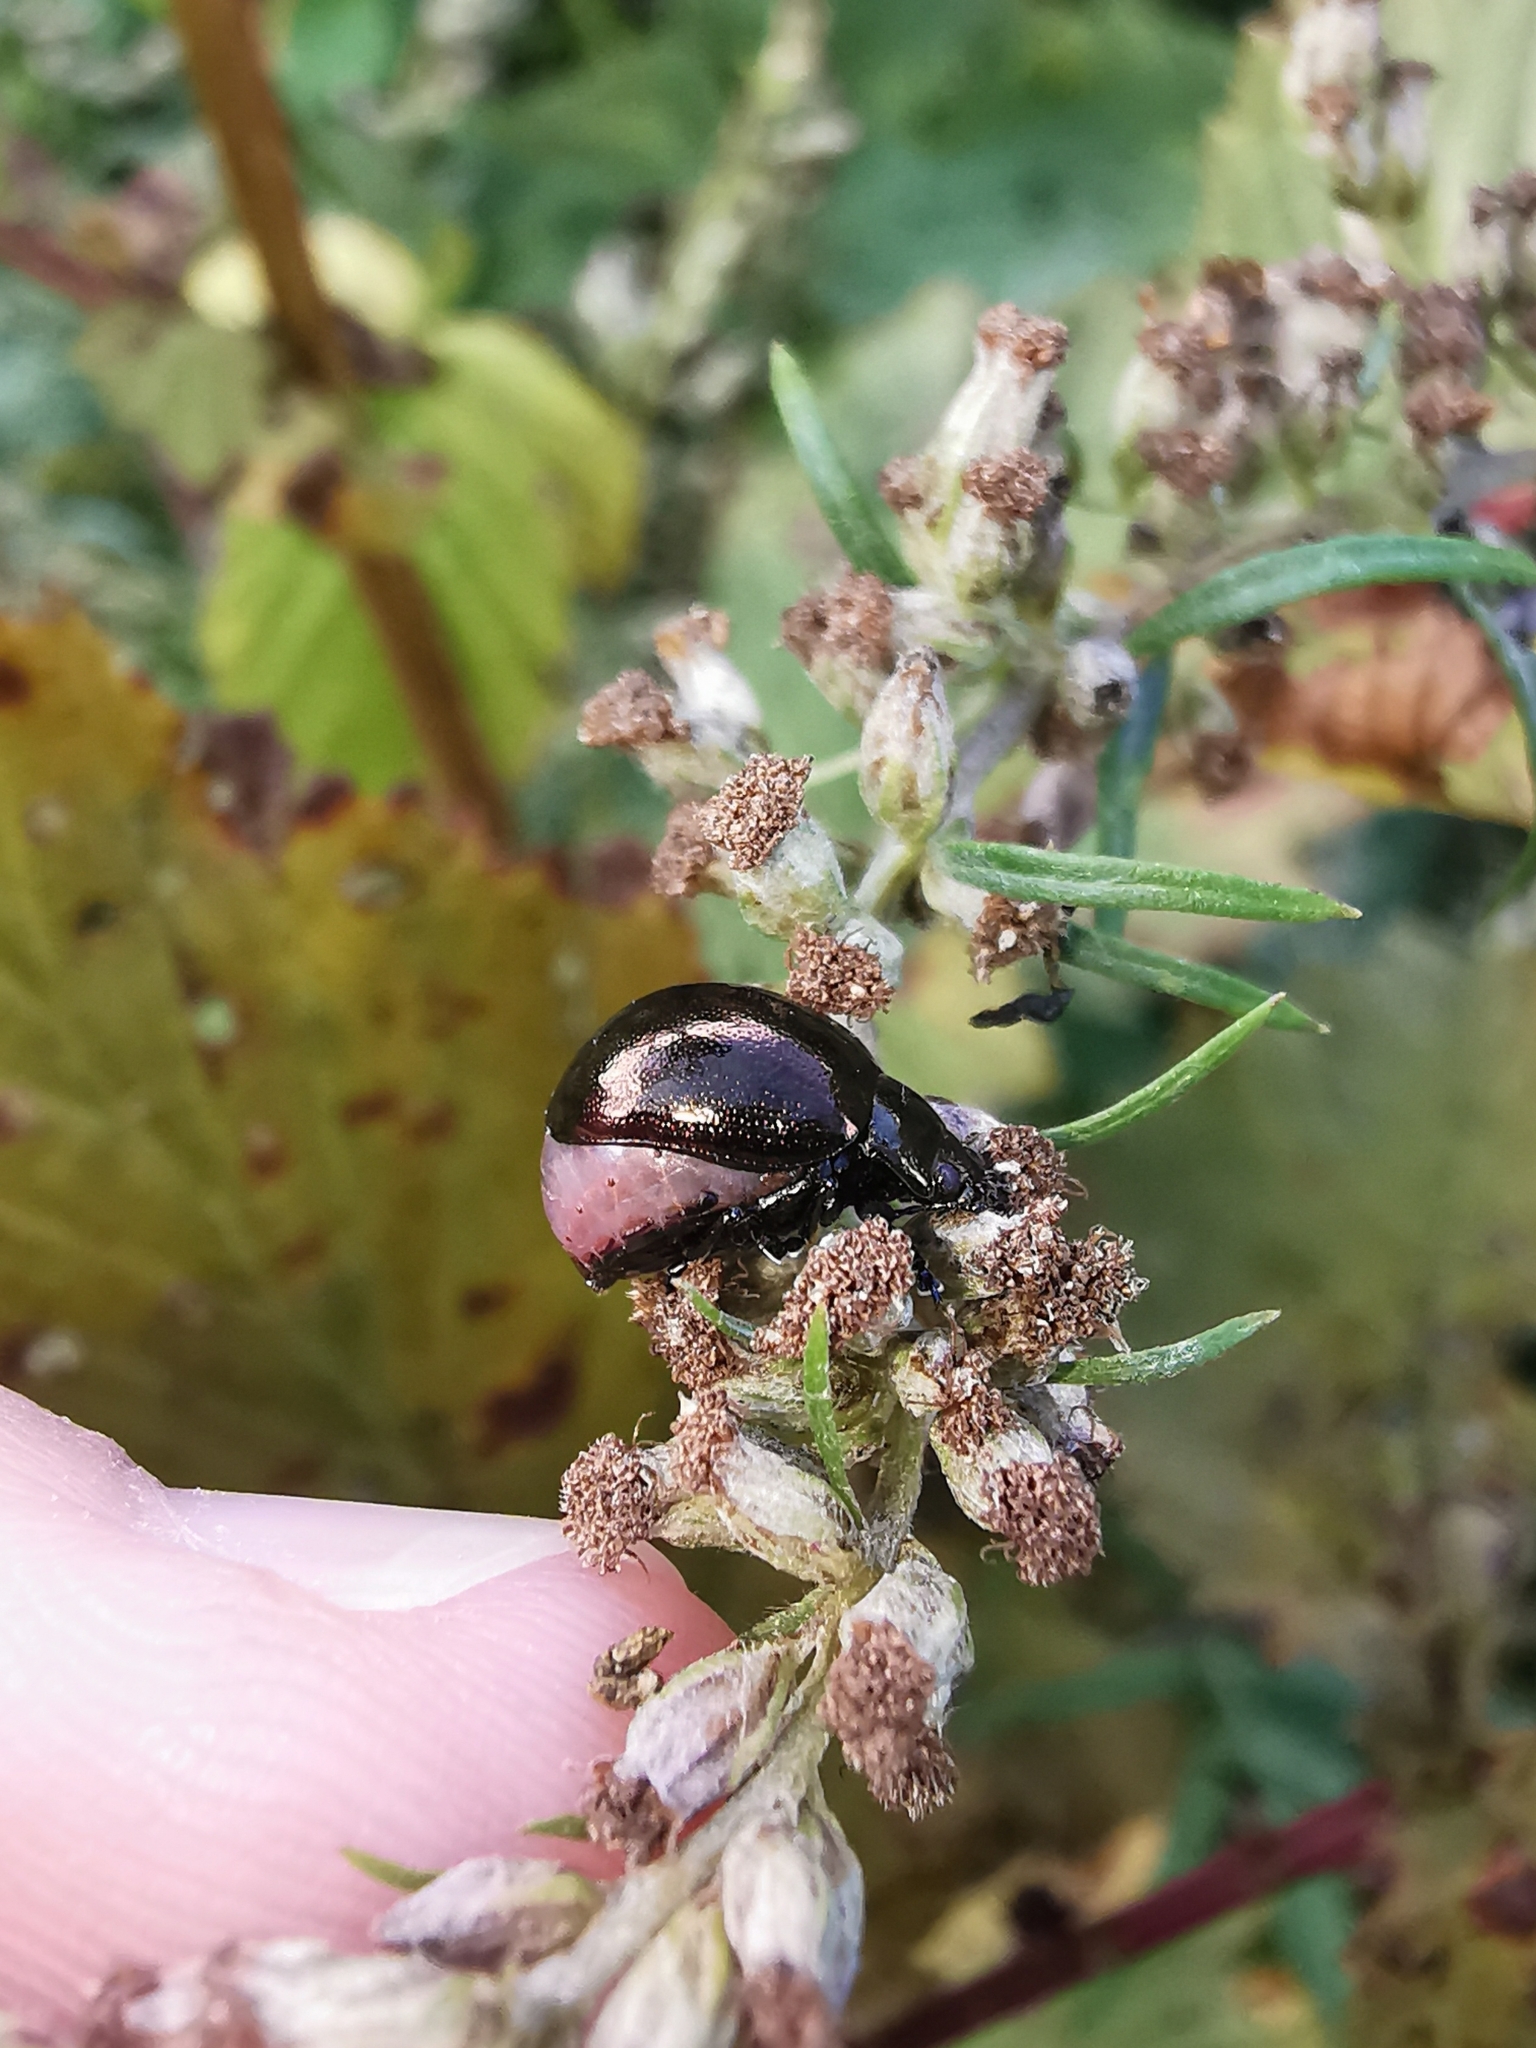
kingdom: Animalia
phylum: Arthropoda
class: Insecta
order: Coleoptera
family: Chrysomelidae
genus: Chrysolina
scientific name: Chrysolina aurichalcea
